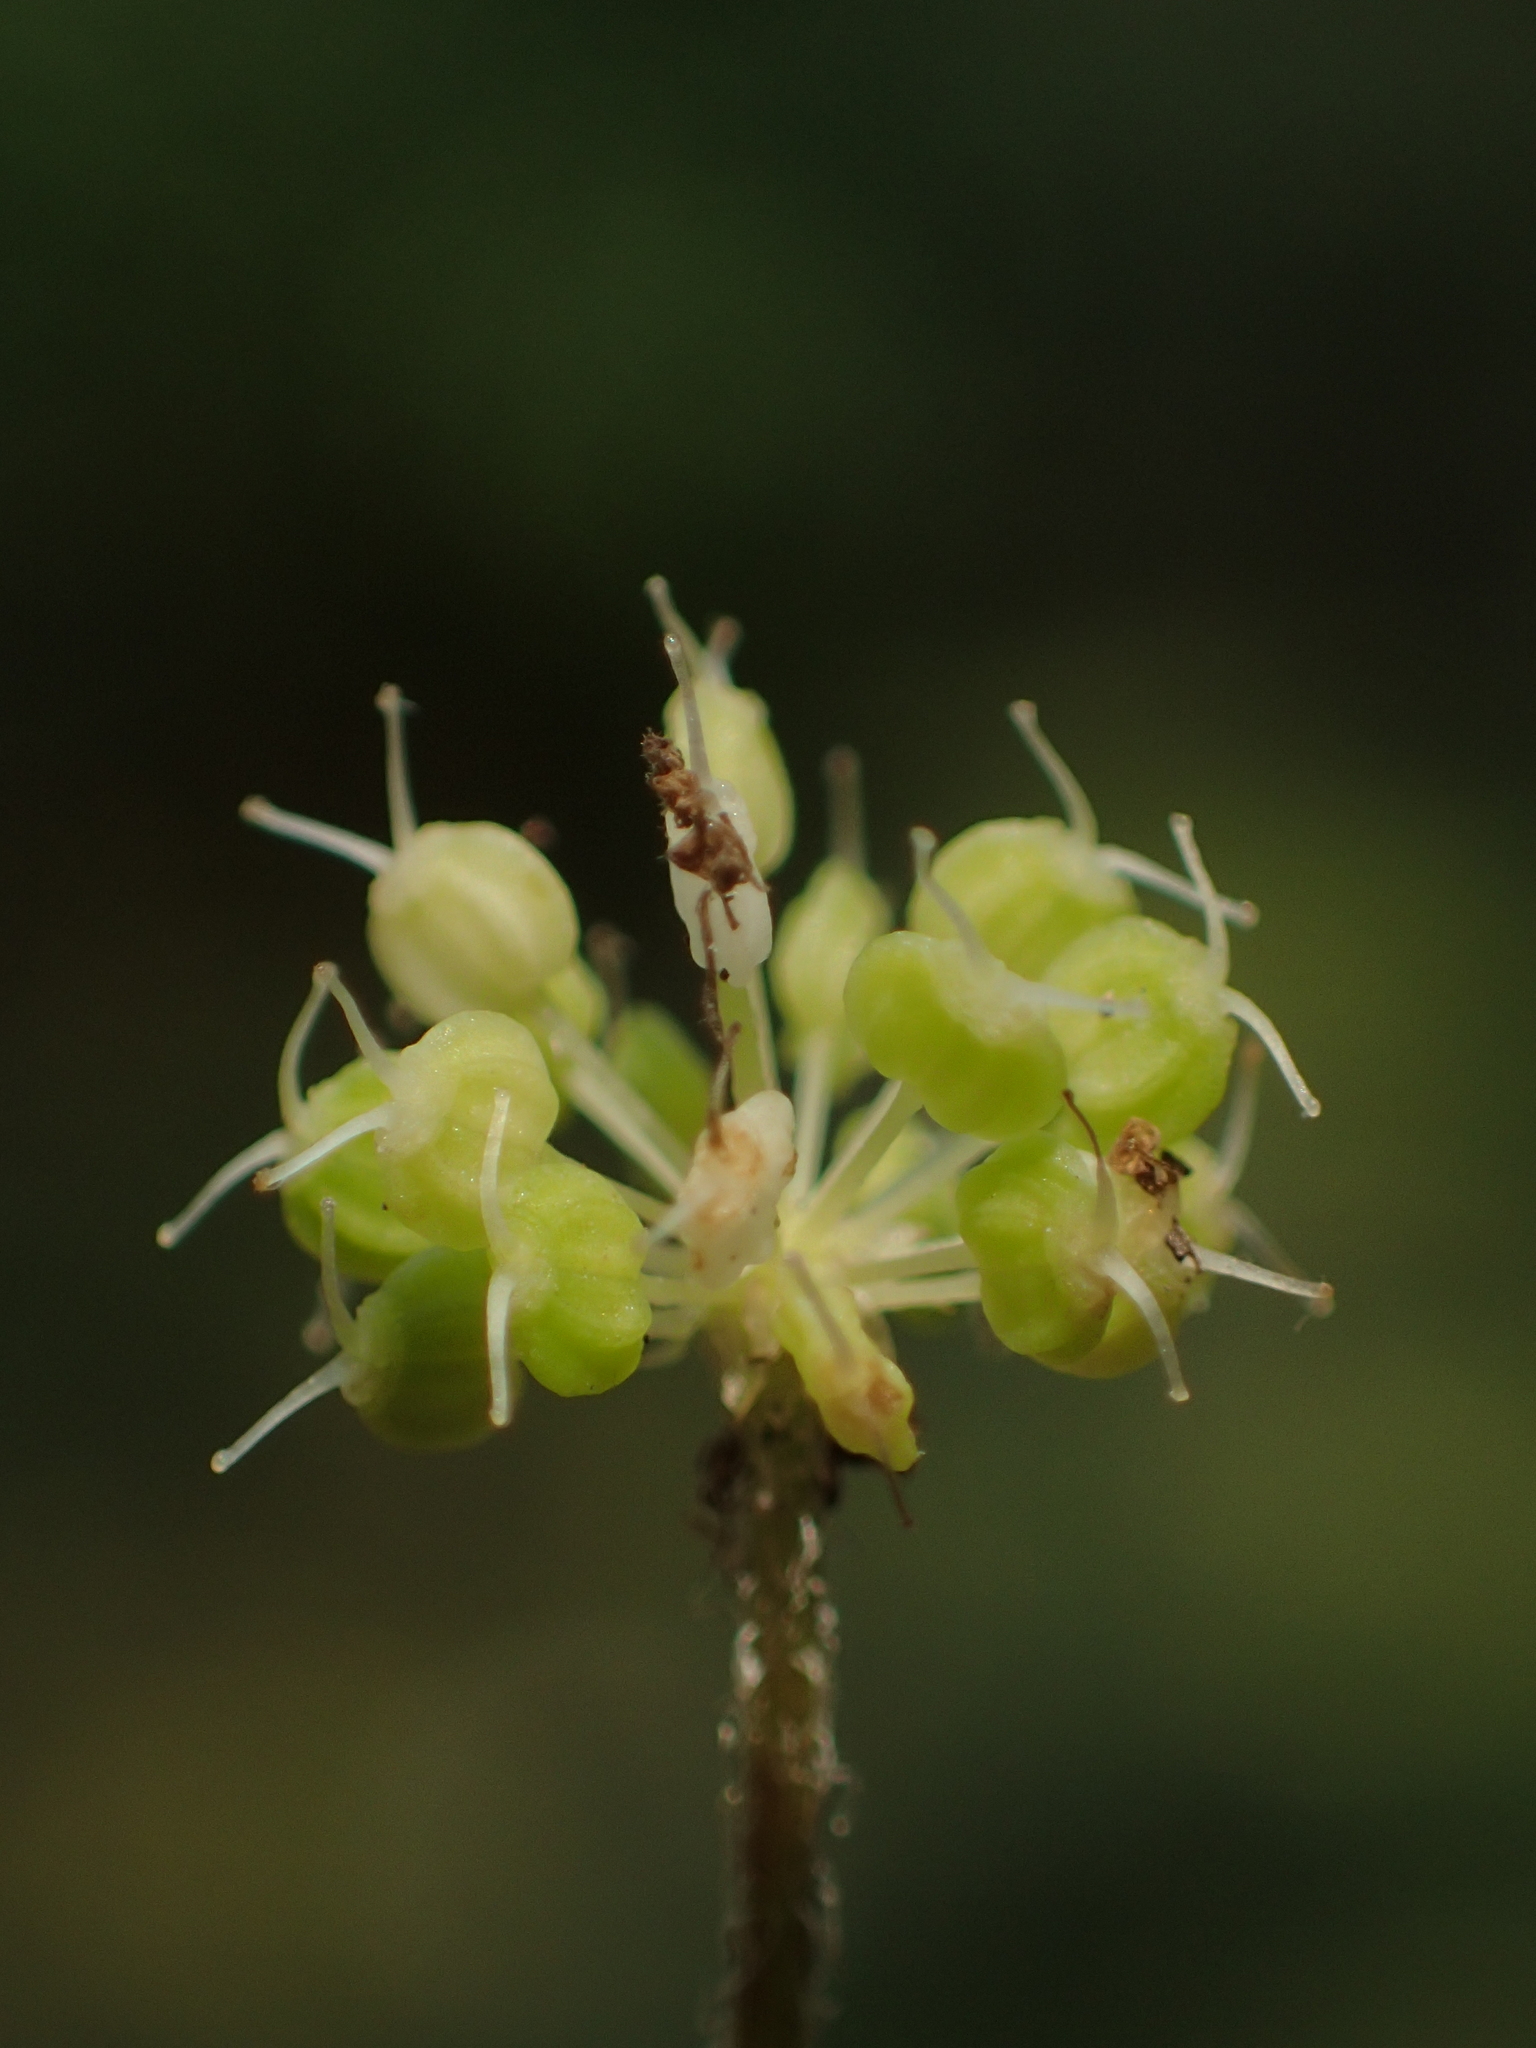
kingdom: Plantae
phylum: Tracheophyta
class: Magnoliopsida
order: Apiales
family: Araliaceae
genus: Hydrocotyle
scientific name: Hydrocotyle leucocephala
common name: Brazilian pennywort
